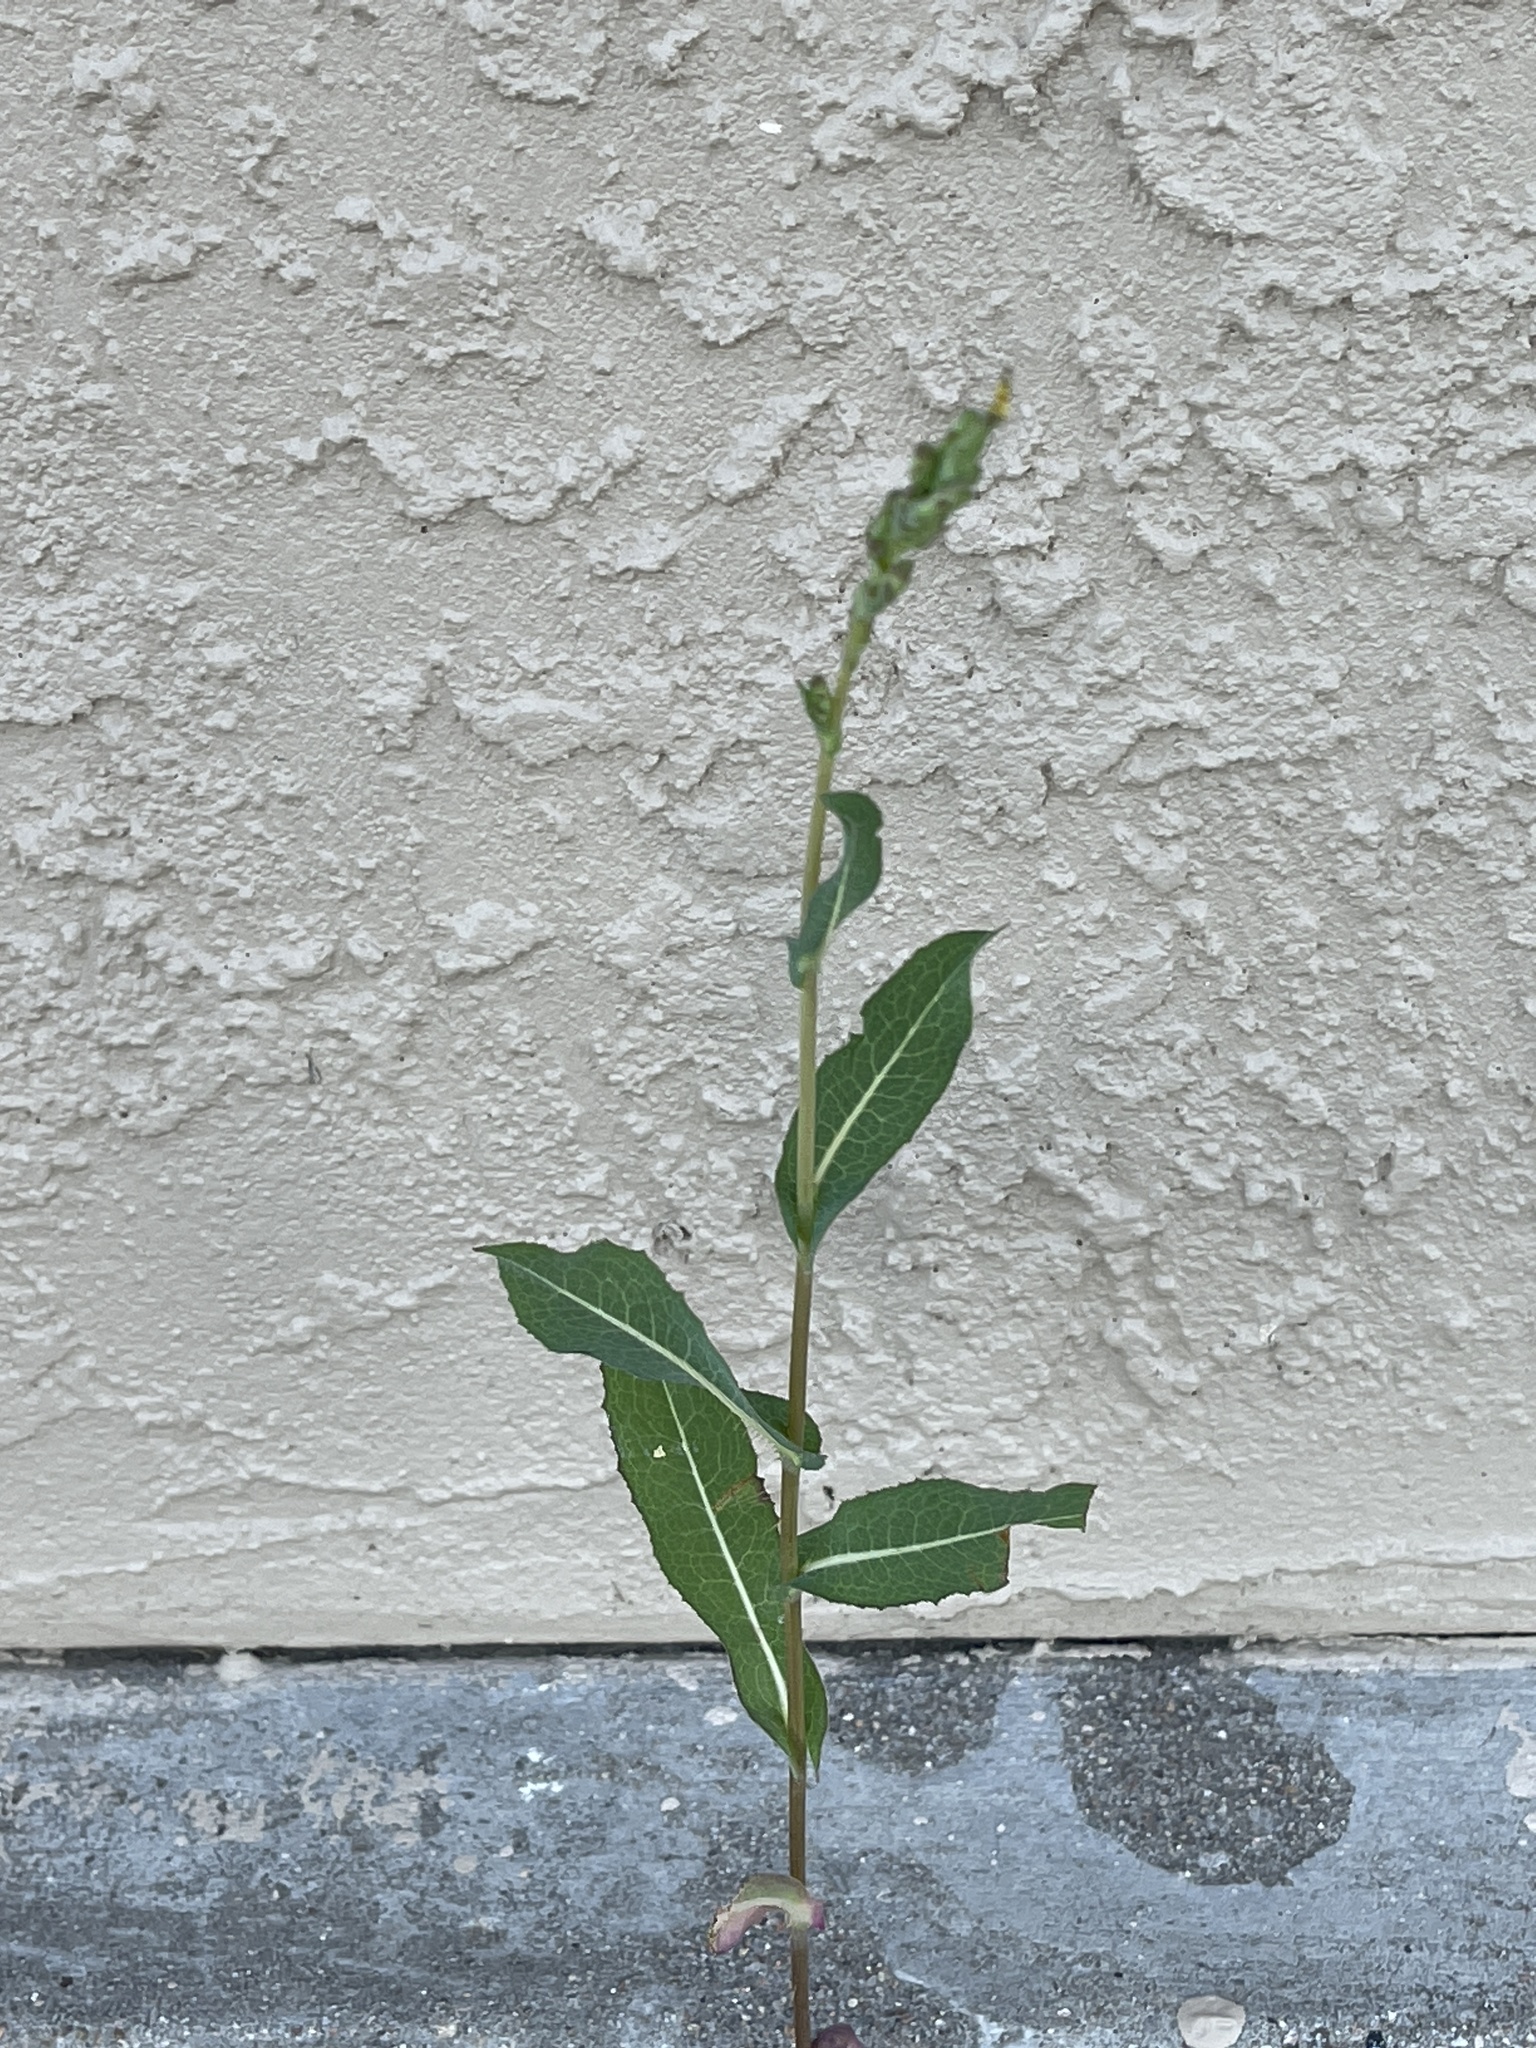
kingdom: Plantae
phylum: Tracheophyta
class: Magnoliopsida
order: Asterales
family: Asteraceae
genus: Lactuca
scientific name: Lactuca serriola
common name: Prickly lettuce
